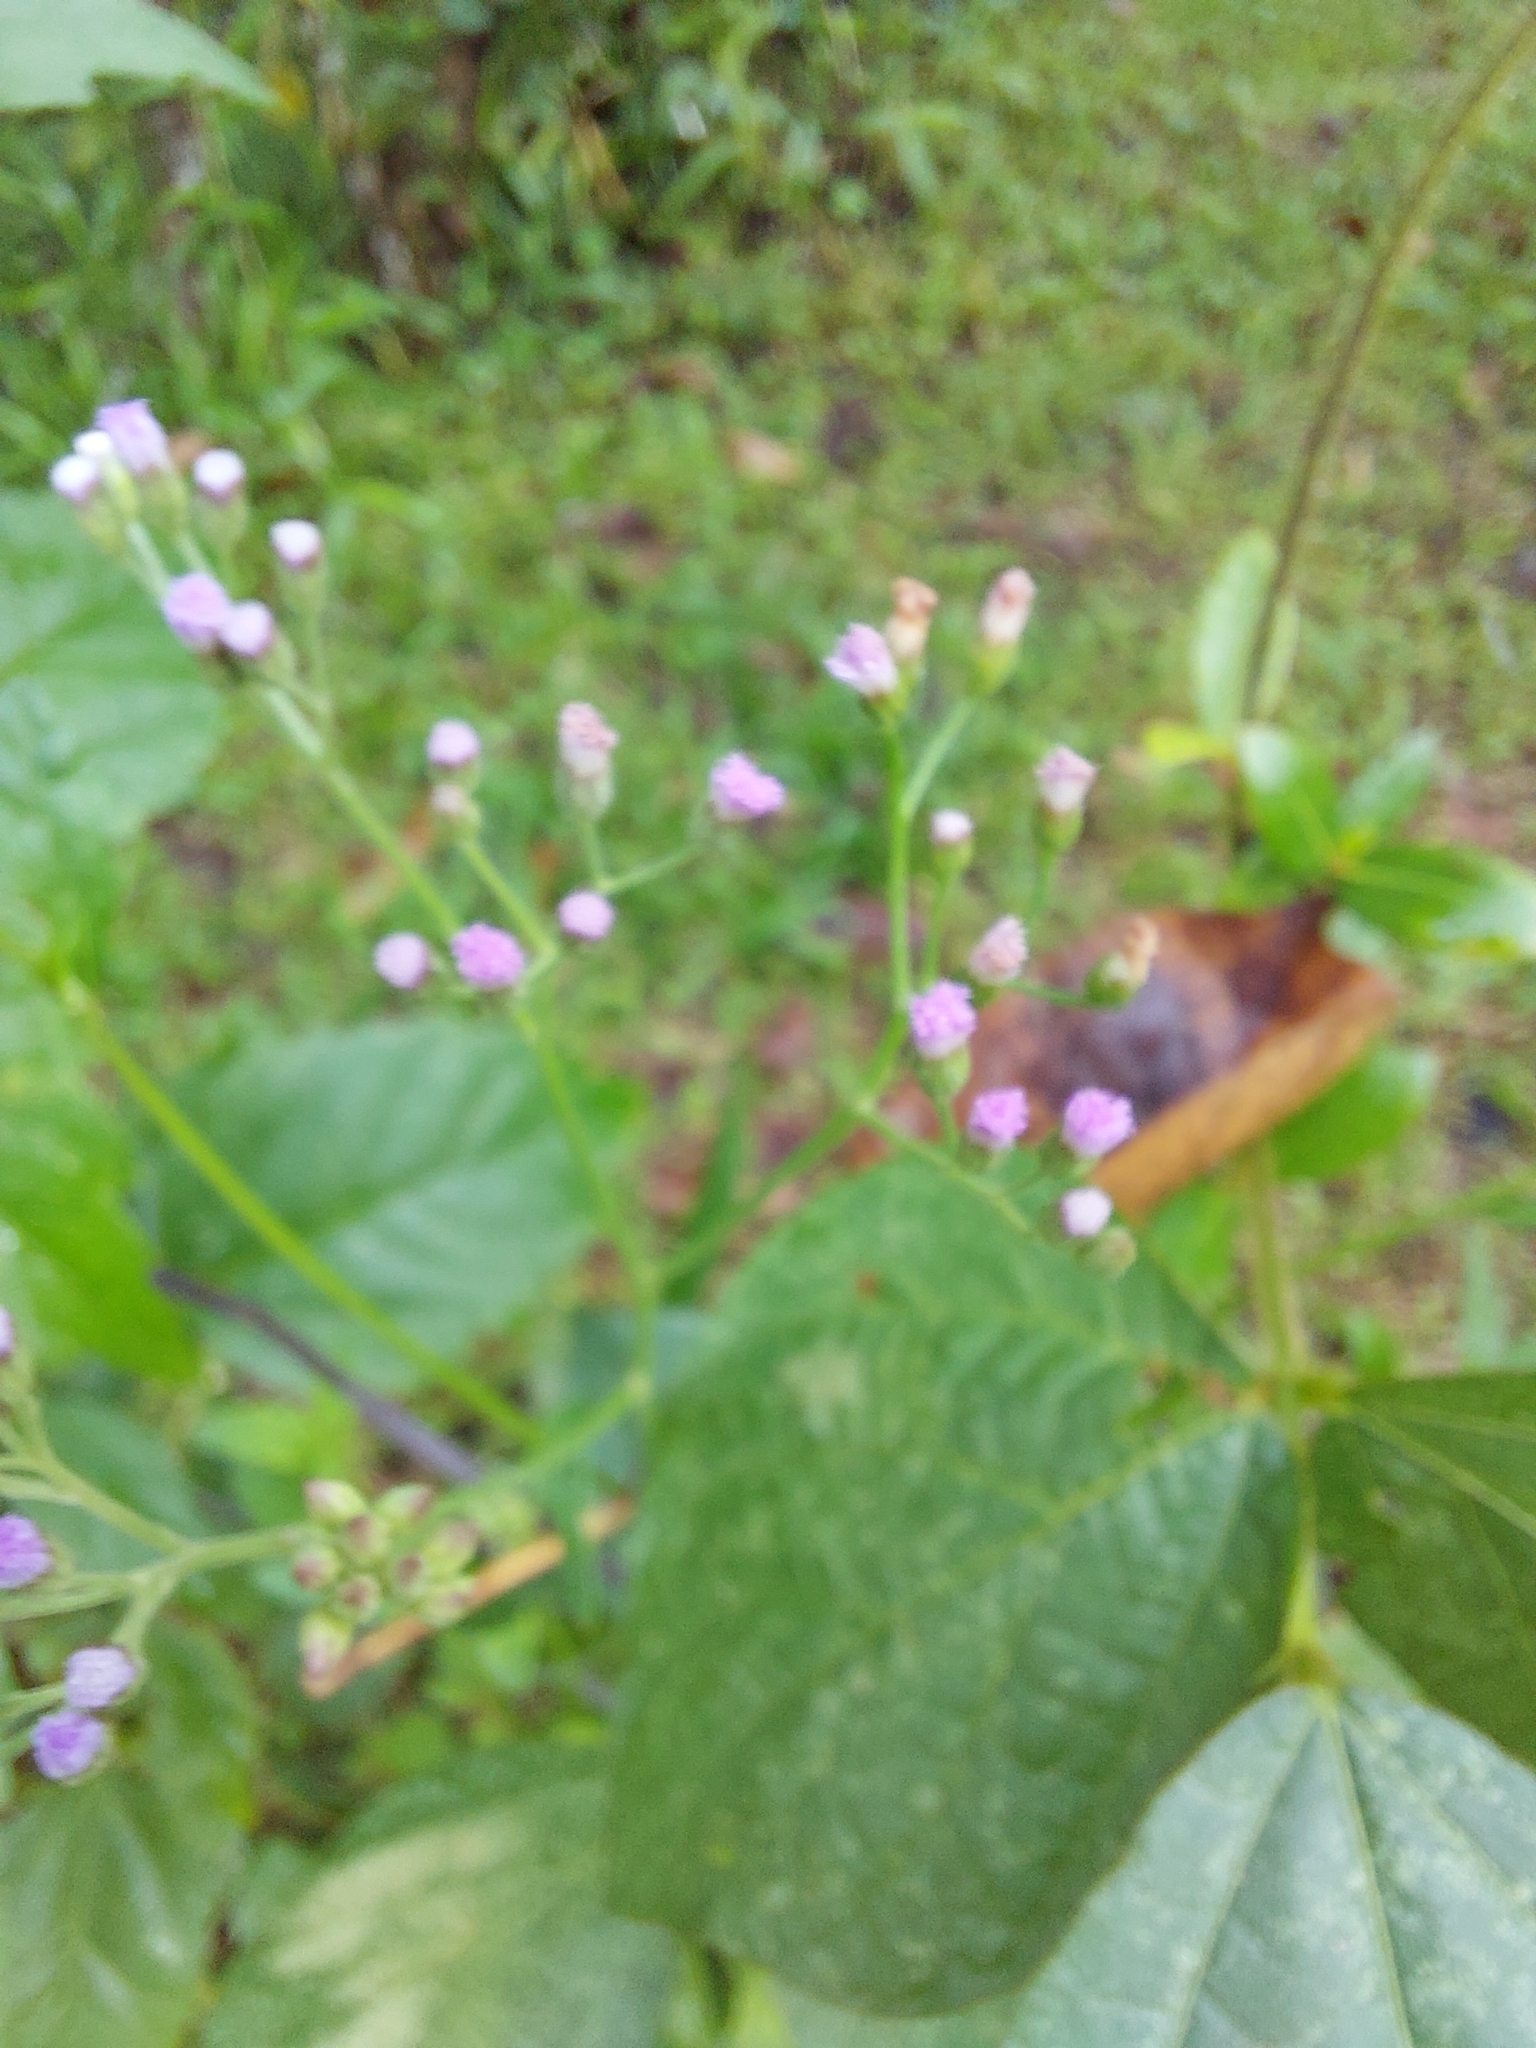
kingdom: Plantae
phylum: Tracheophyta
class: Magnoliopsida
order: Asterales
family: Asteraceae
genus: Cyanthillium
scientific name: Cyanthillium cinereum
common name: Little ironweed
